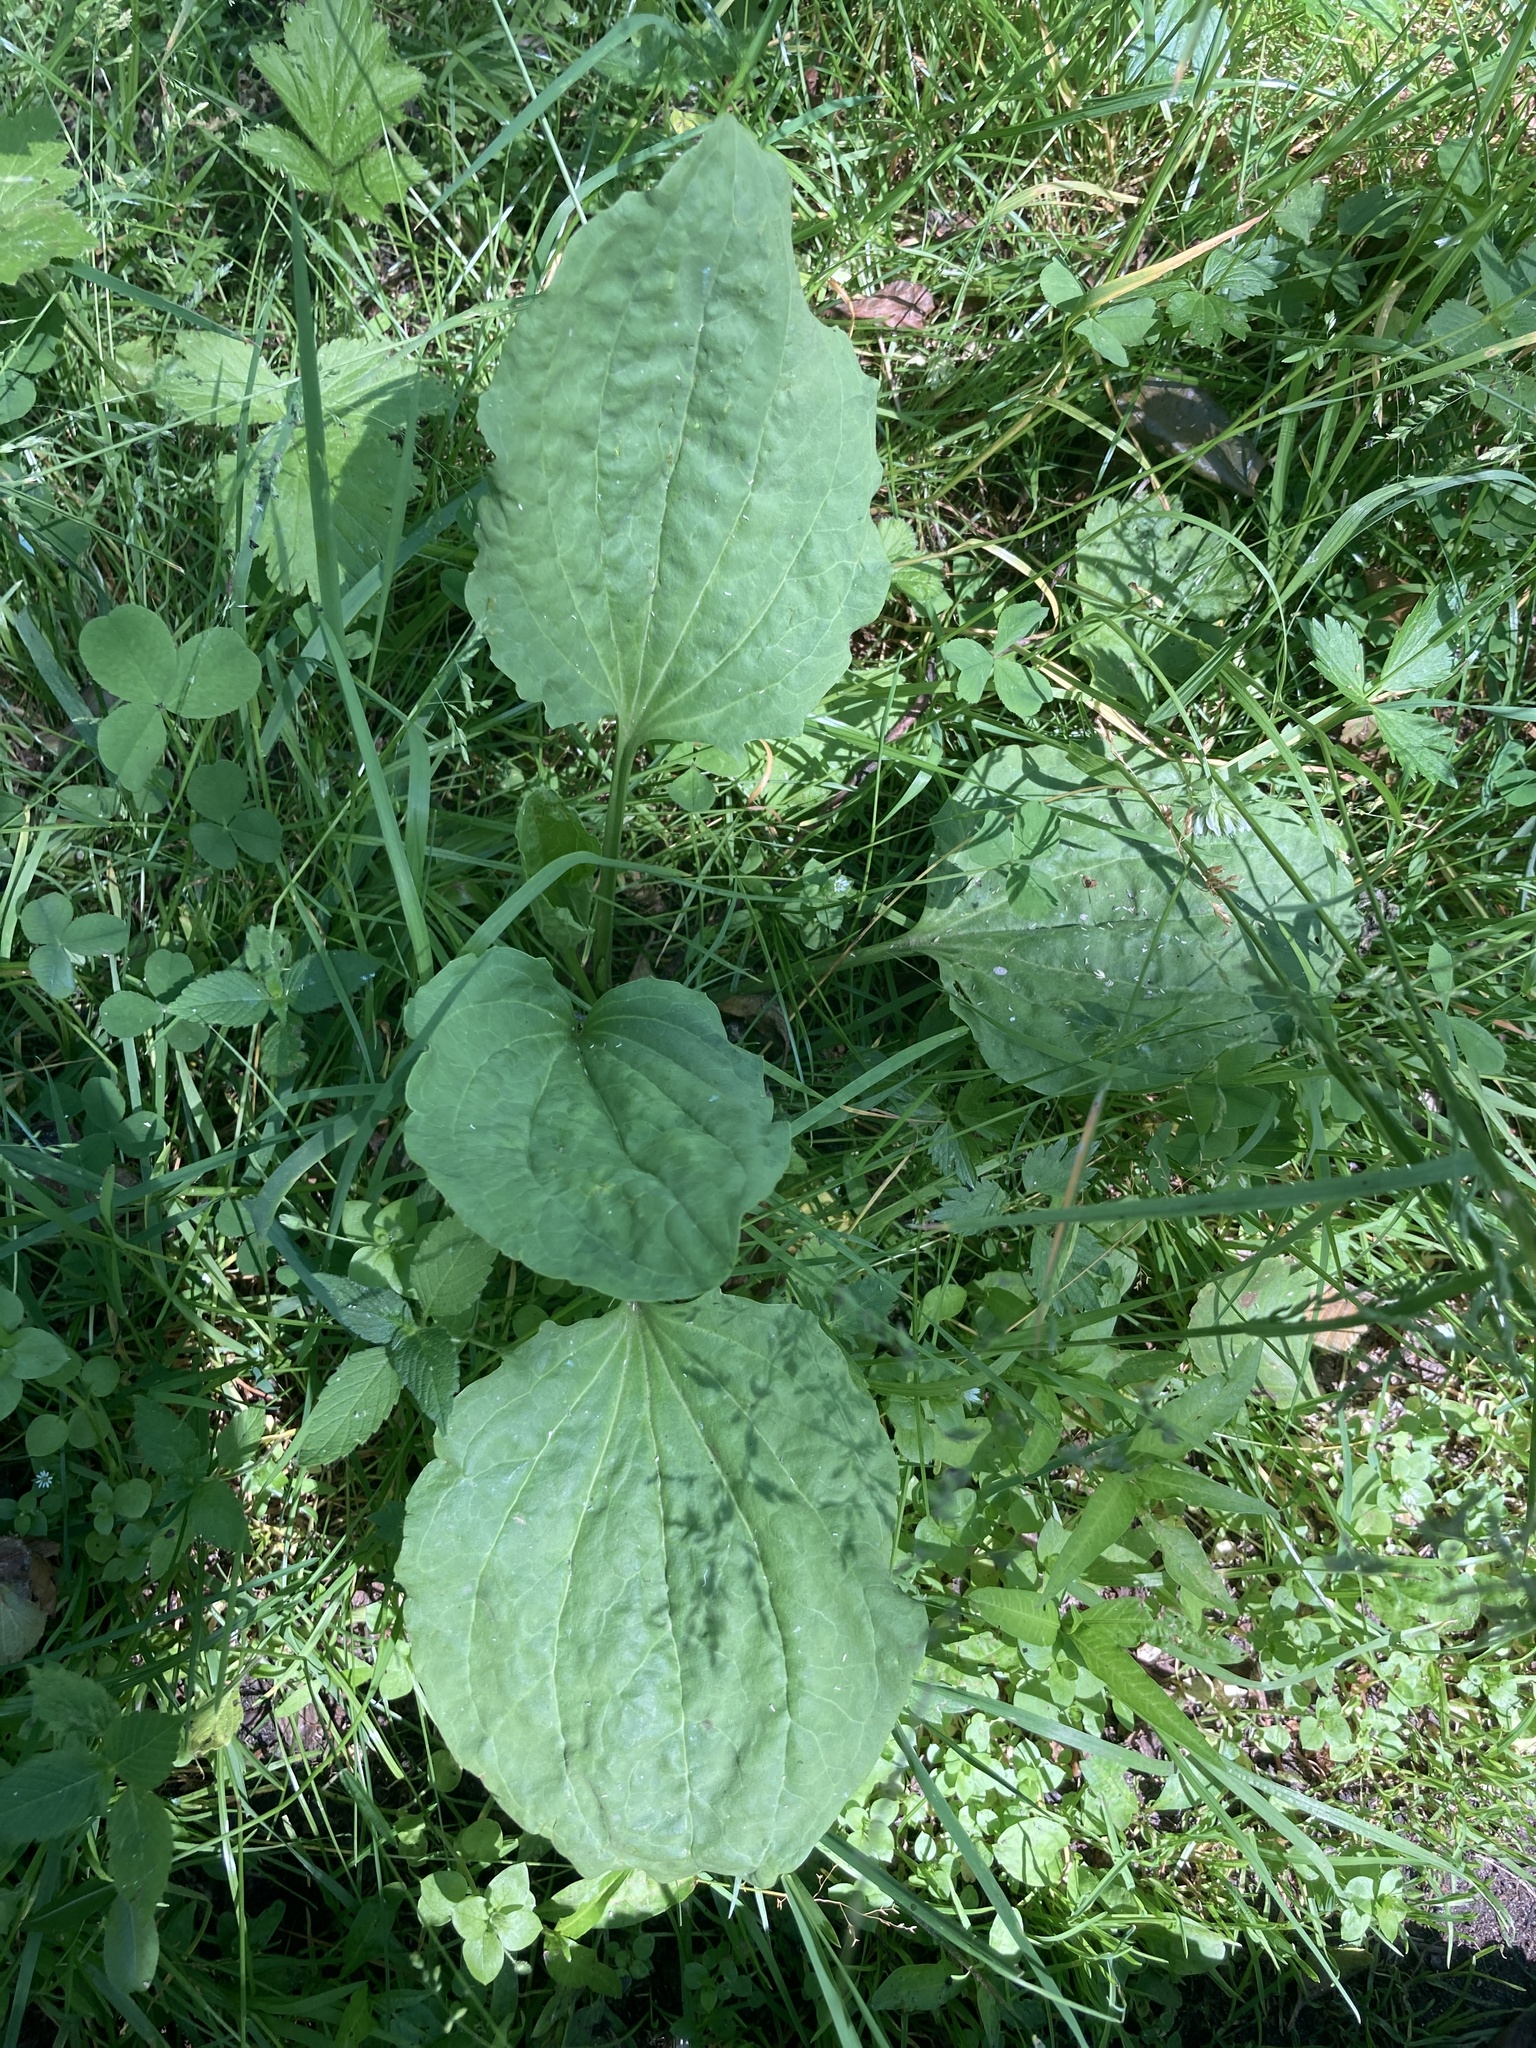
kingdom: Plantae
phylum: Tracheophyta
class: Magnoliopsida
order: Lamiales
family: Plantaginaceae
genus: Plantago
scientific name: Plantago major
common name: Common plantain
